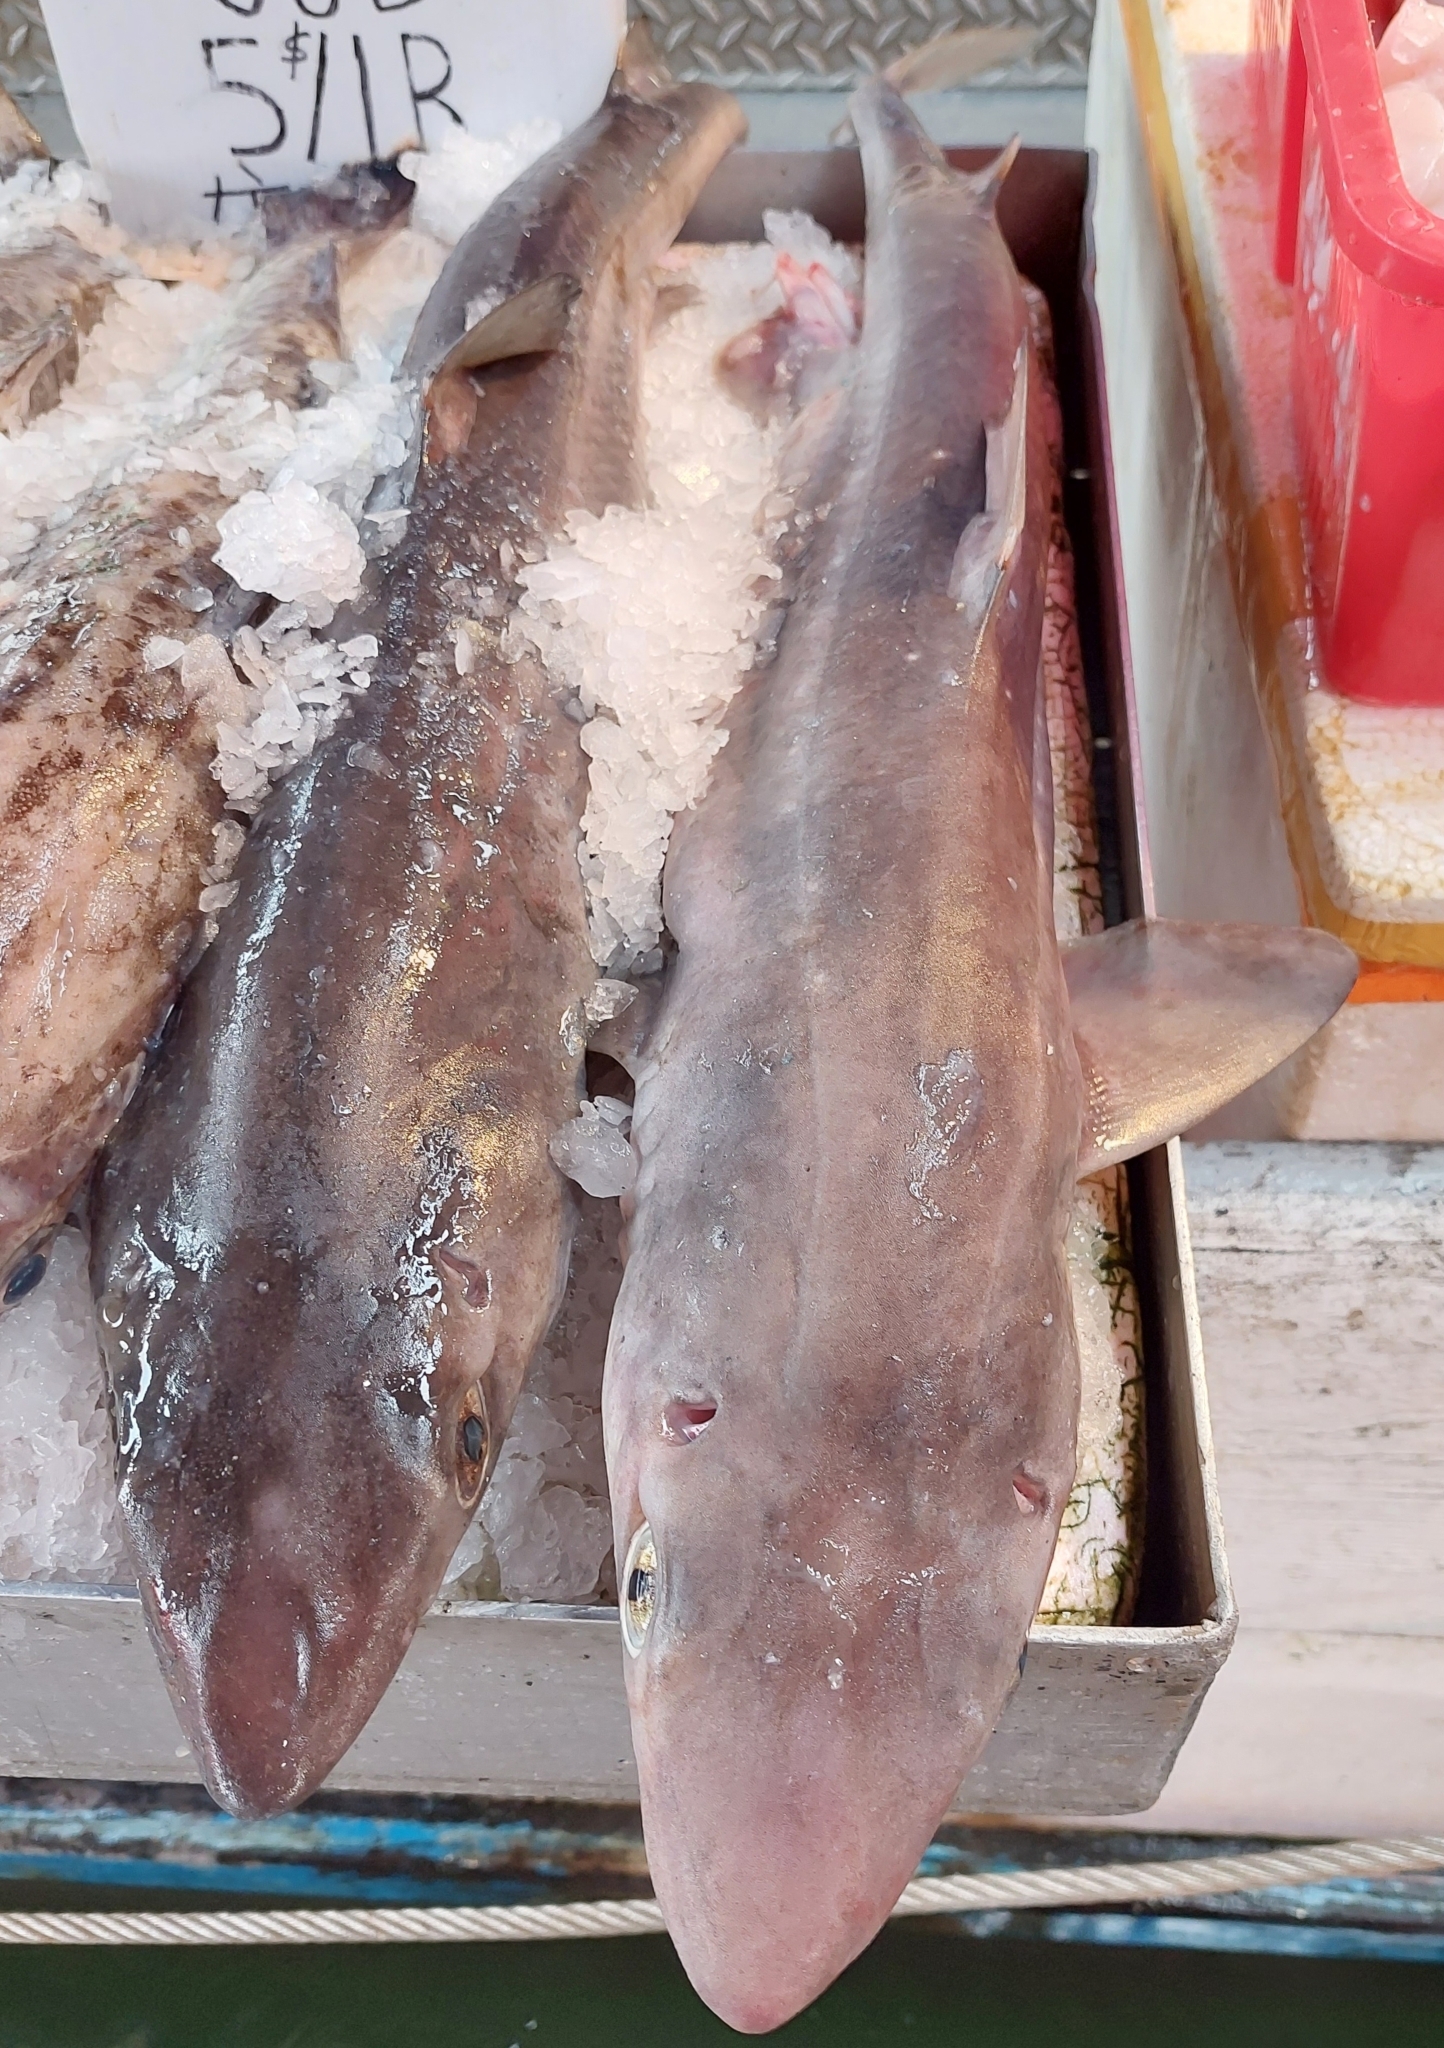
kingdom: Animalia
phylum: Chordata
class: Elasmobranchii
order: Squaliformes
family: Squalidae
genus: Squalus
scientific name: Squalus suckleyi
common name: Spiny dogfish
